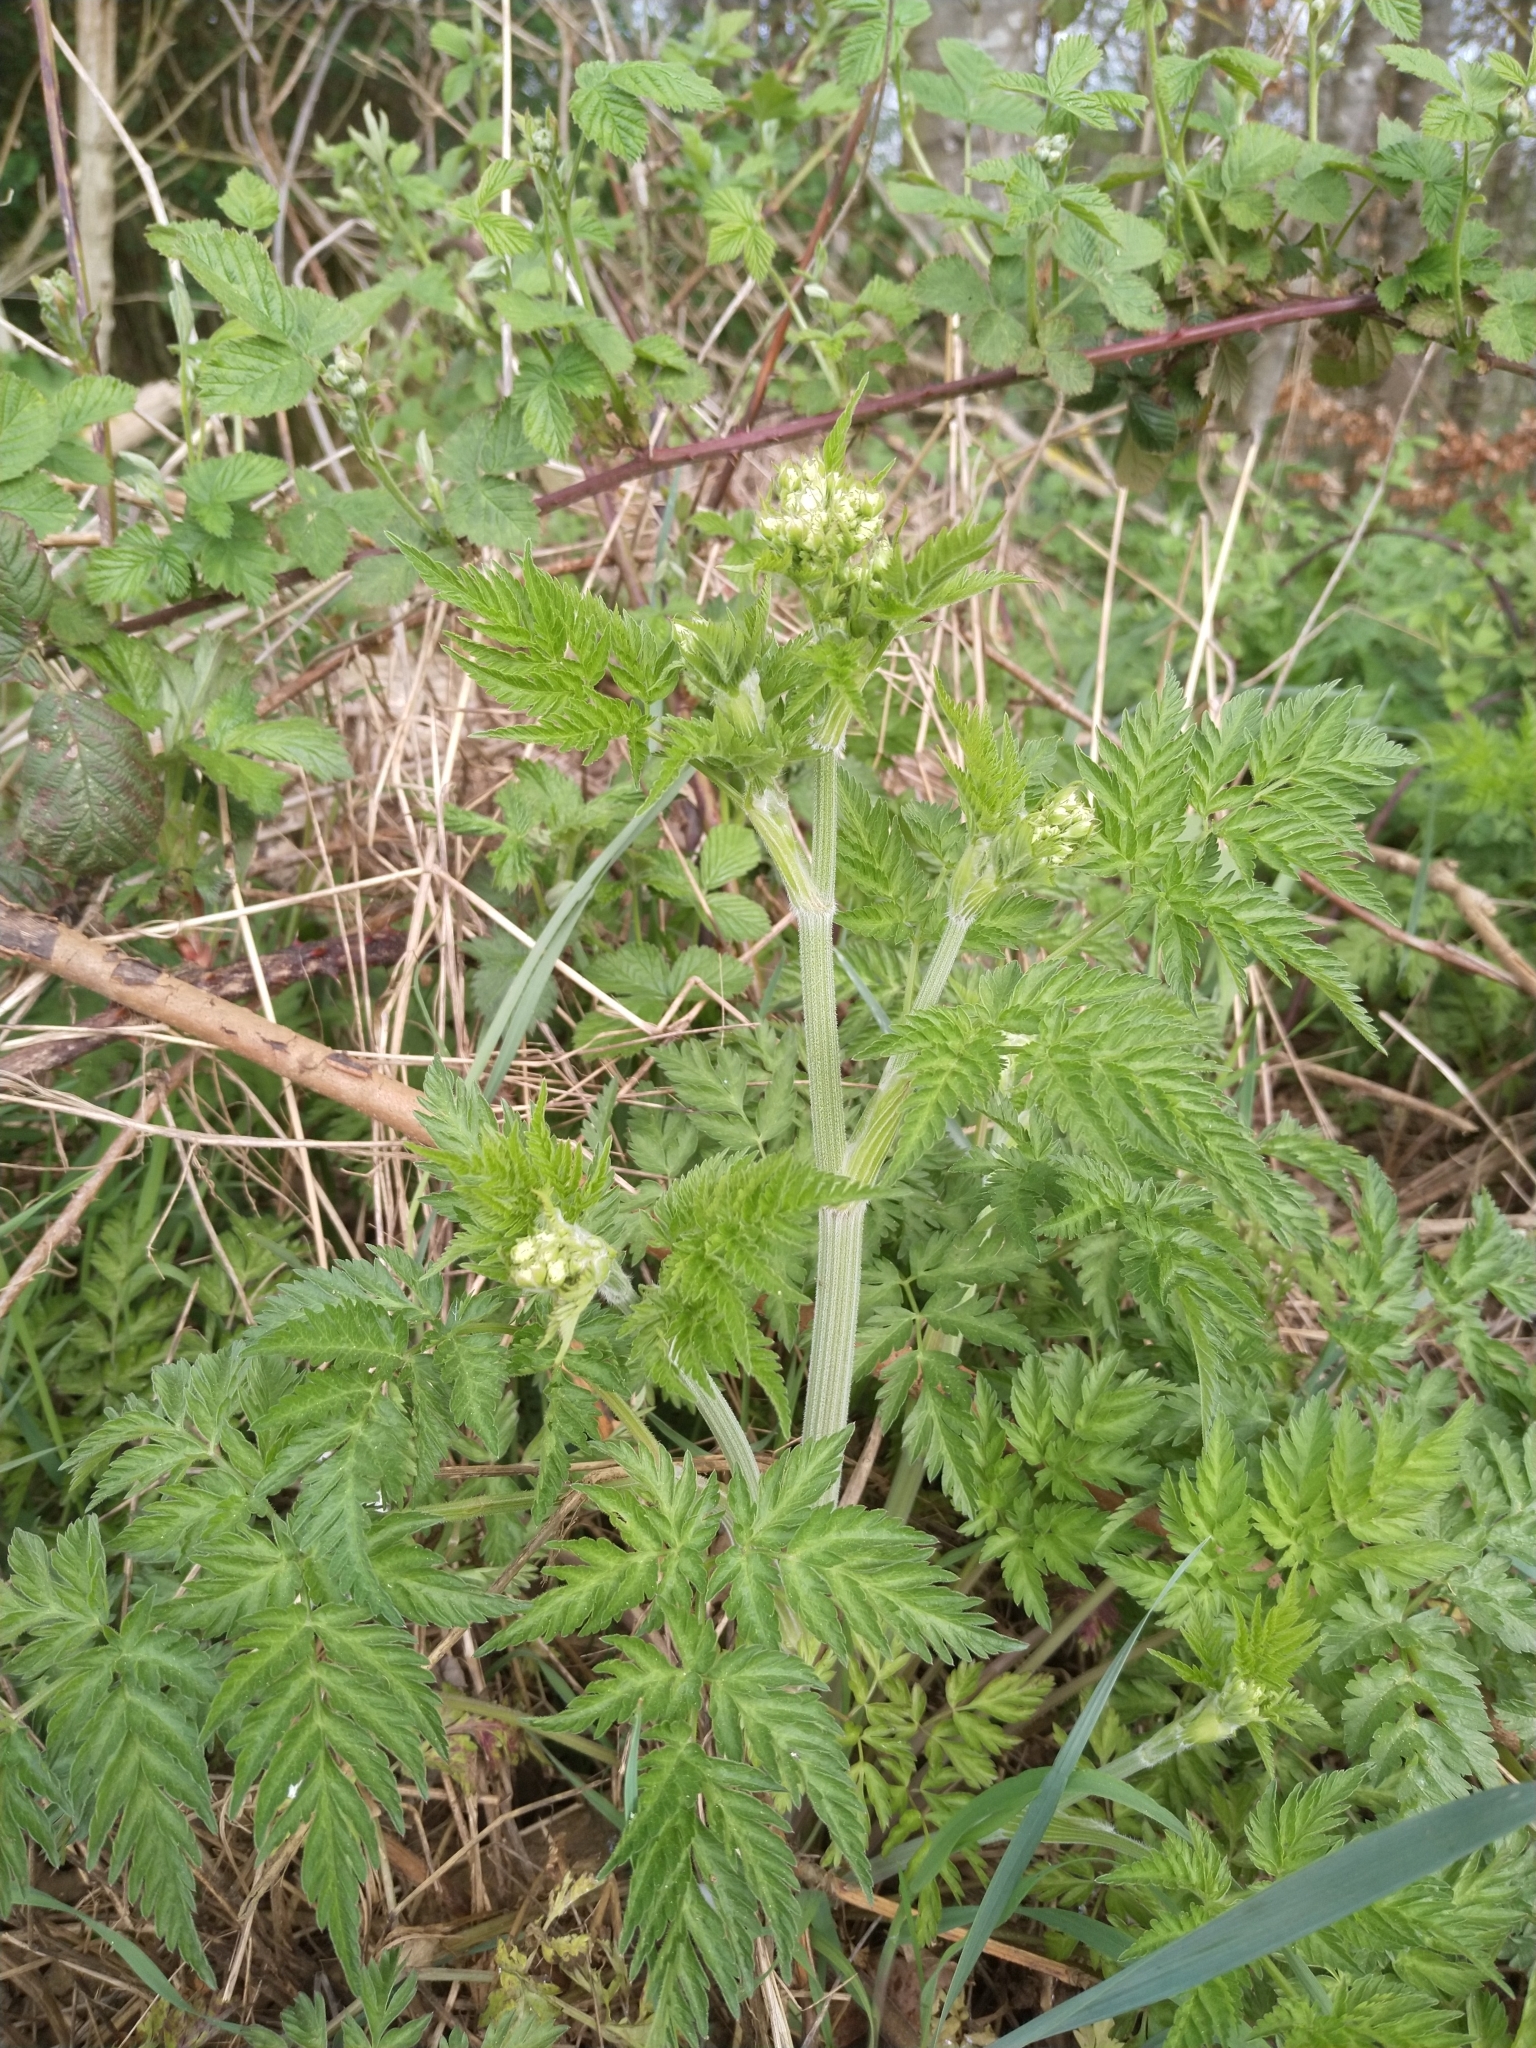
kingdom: Plantae
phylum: Tracheophyta
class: Magnoliopsida
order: Apiales
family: Apiaceae
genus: Anthriscus
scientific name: Anthriscus sylvestris
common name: Cow parsley
